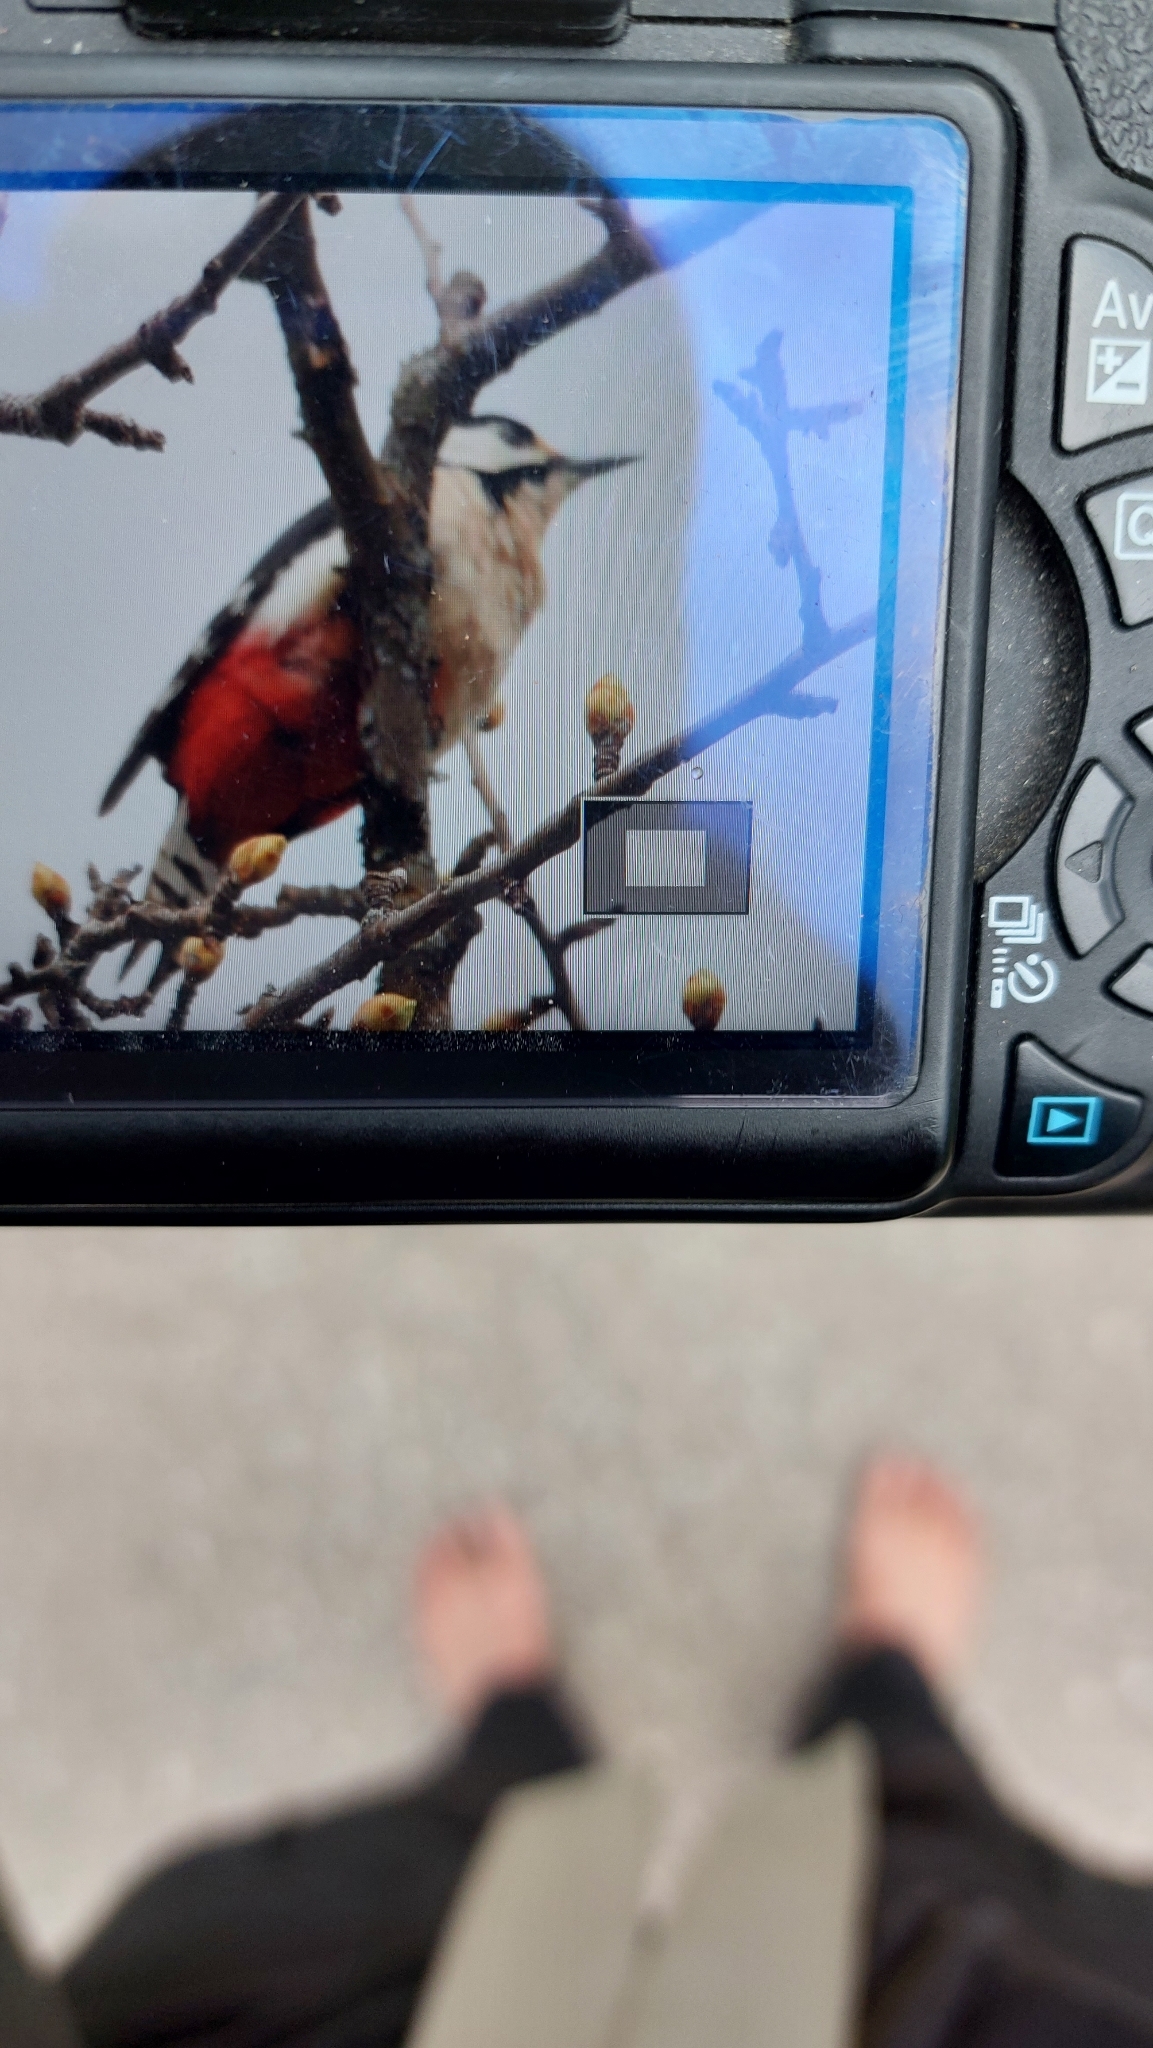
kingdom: Animalia
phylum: Chordata
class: Aves
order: Piciformes
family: Picidae
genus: Dendrocopos
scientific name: Dendrocopos major
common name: Great spotted woodpecker
